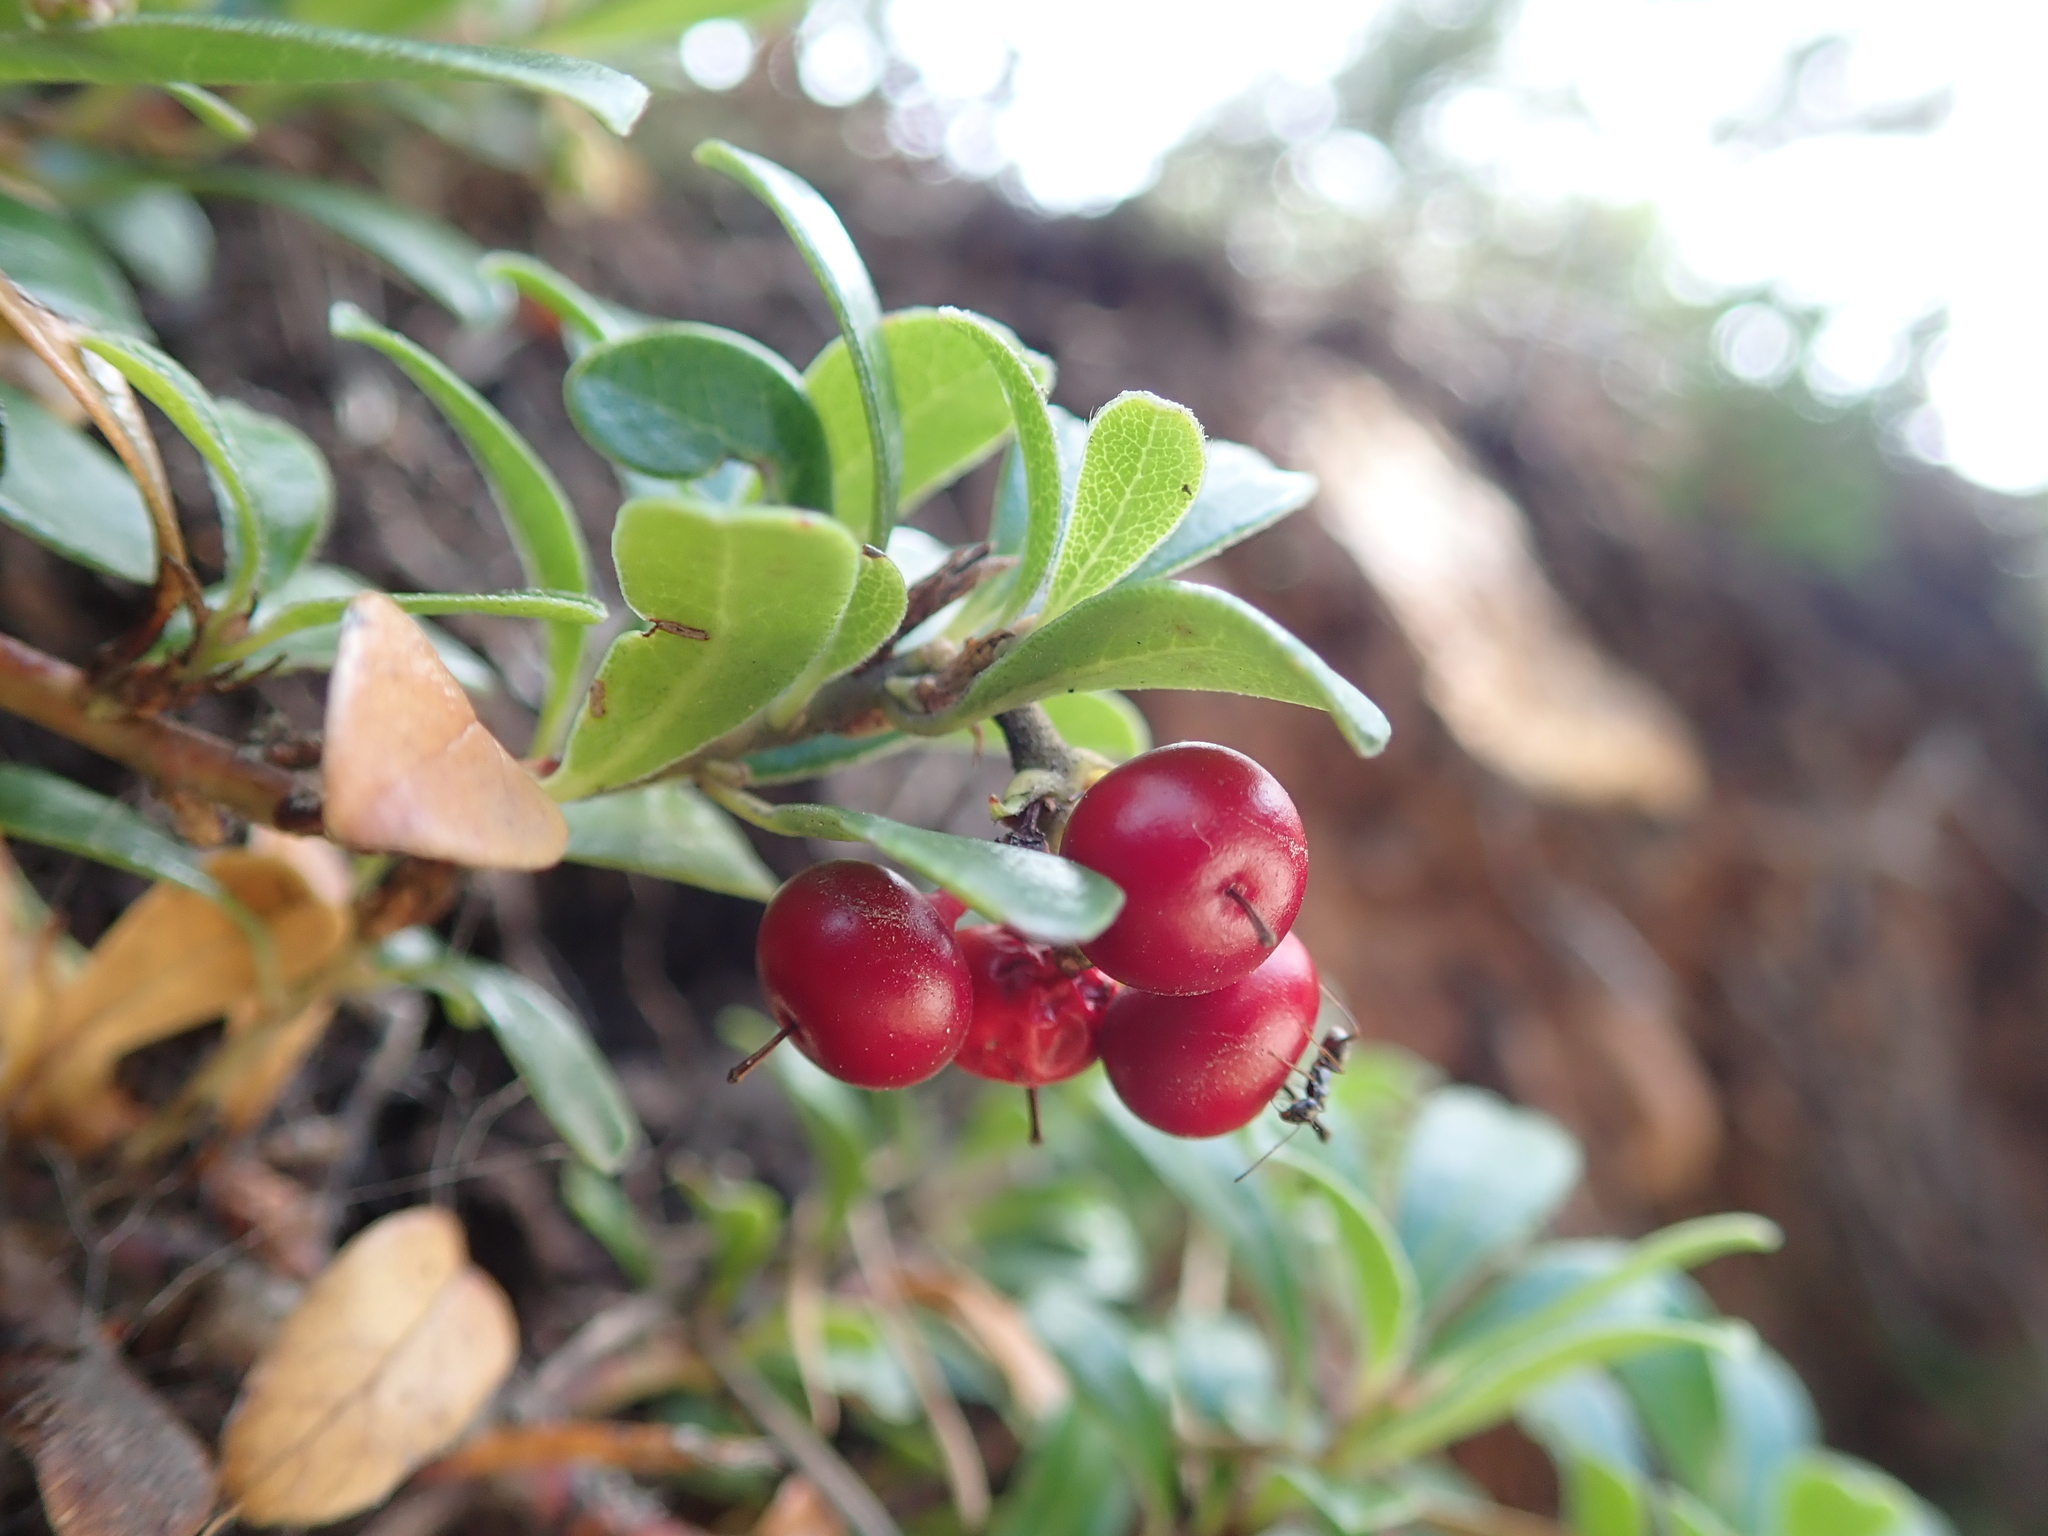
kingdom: Plantae
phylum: Tracheophyta
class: Magnoliopsida
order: Ericales
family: Ericaceae
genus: Arctostaphylos
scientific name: Arctostaphylos uva-ursi
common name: Bearberry
